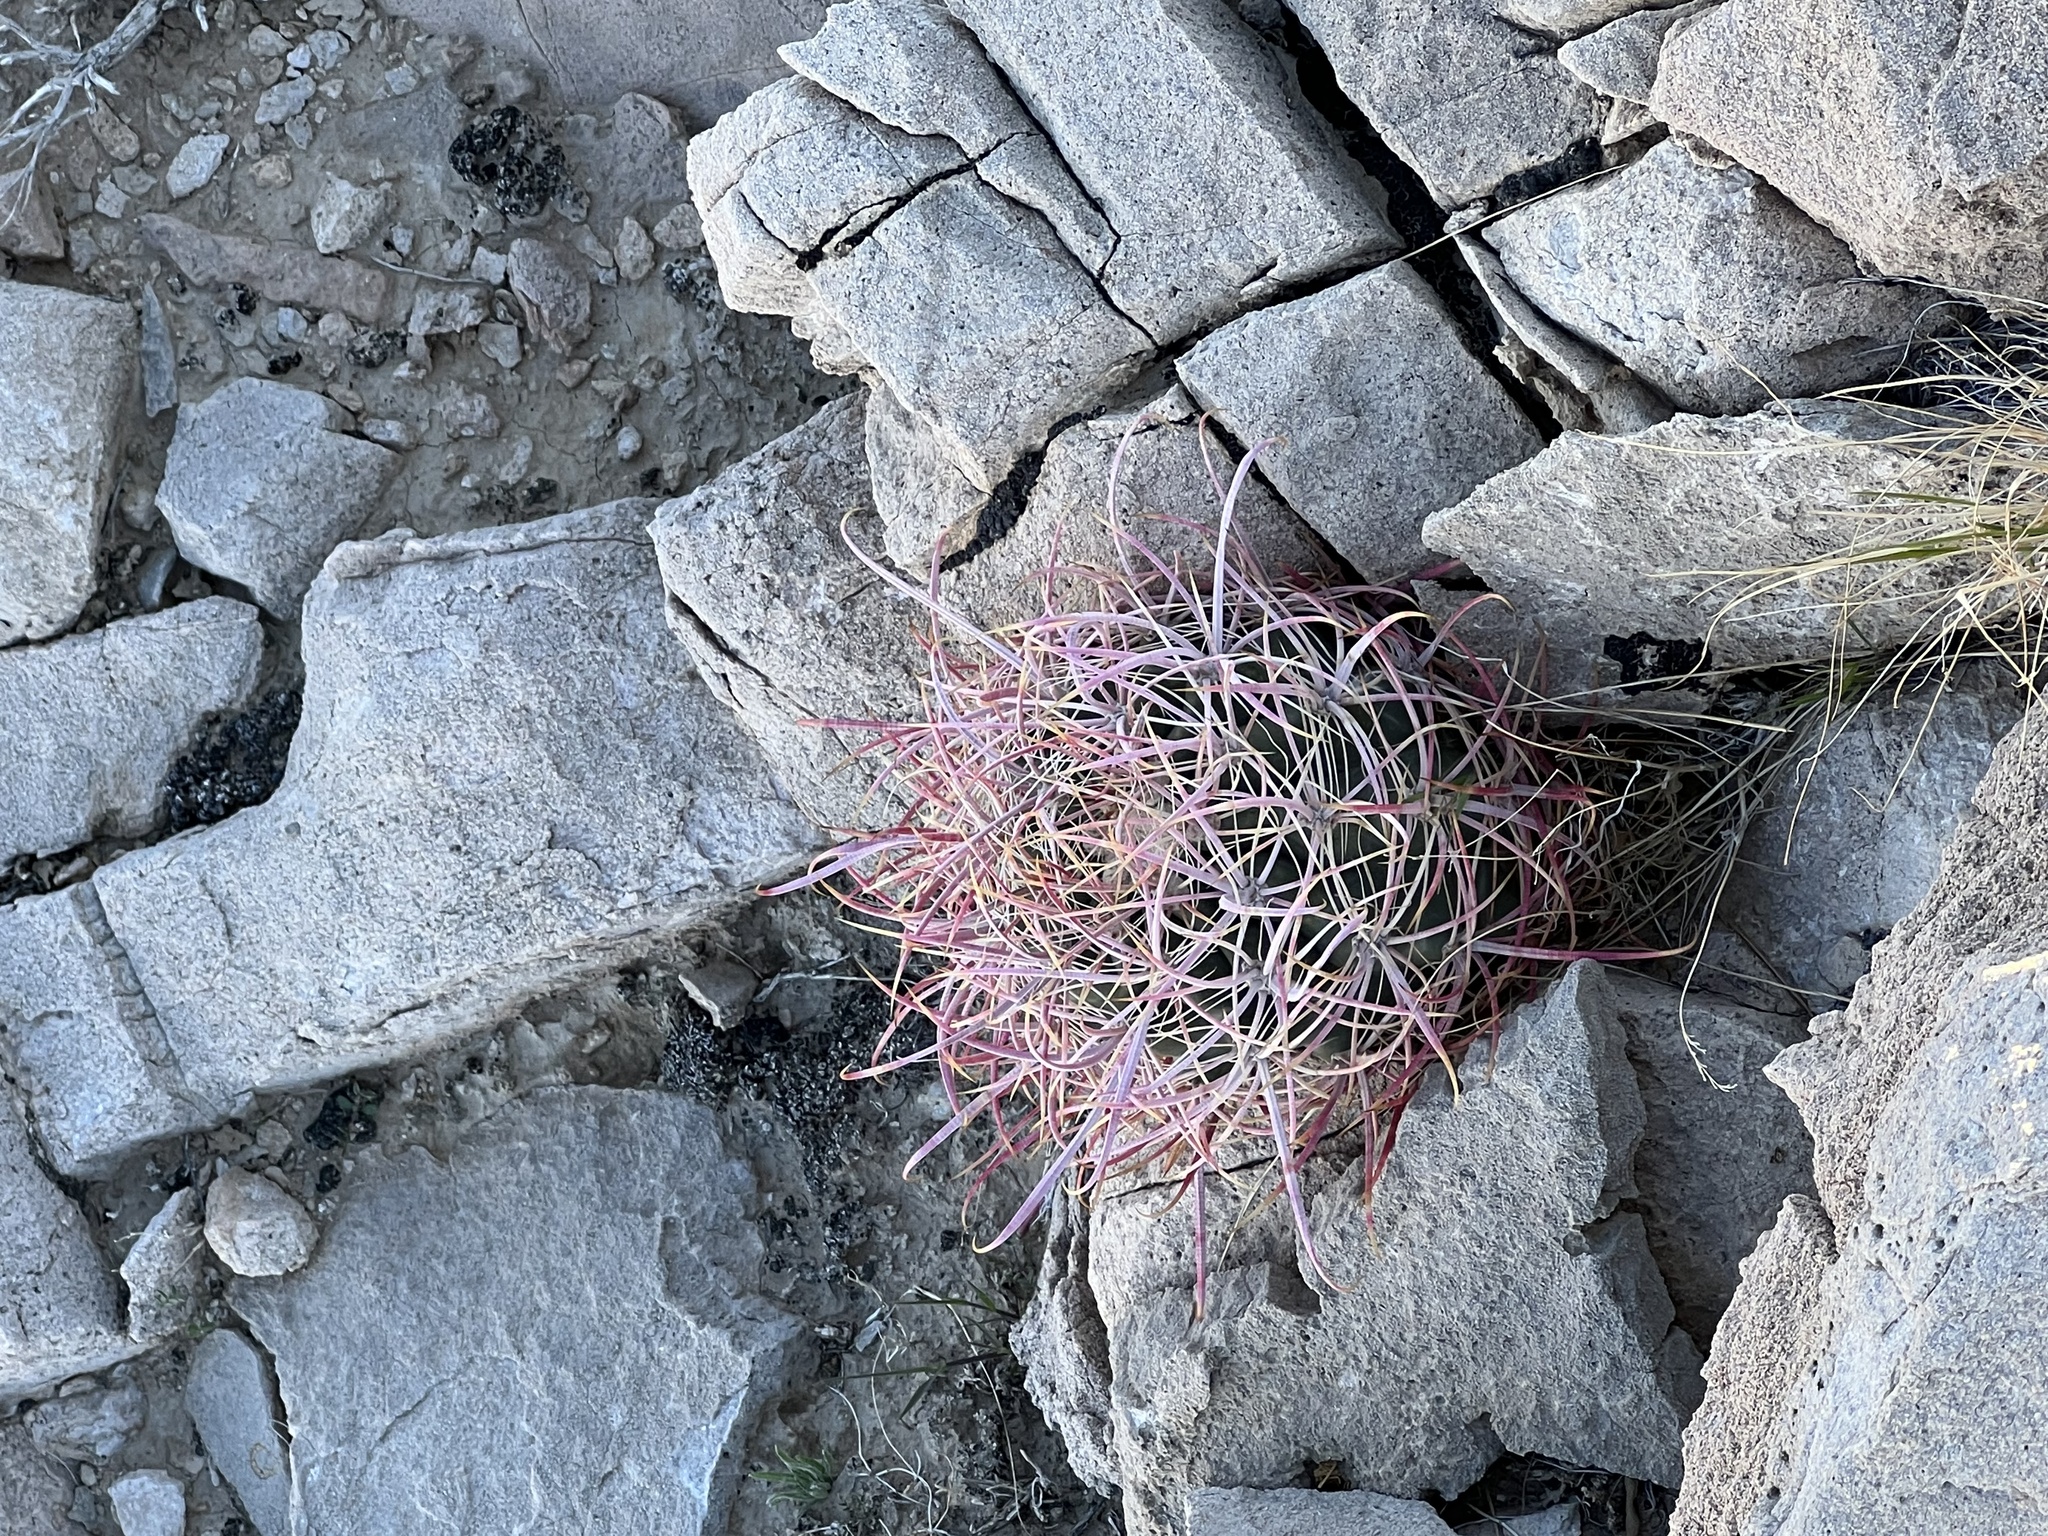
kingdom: Plantae
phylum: Tracheophyta
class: Magnoliopsida
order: Caryophyllales
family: Cactaceae
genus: Ferocactus
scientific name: Ferocactus cylindraceus
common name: California barrel cactus
